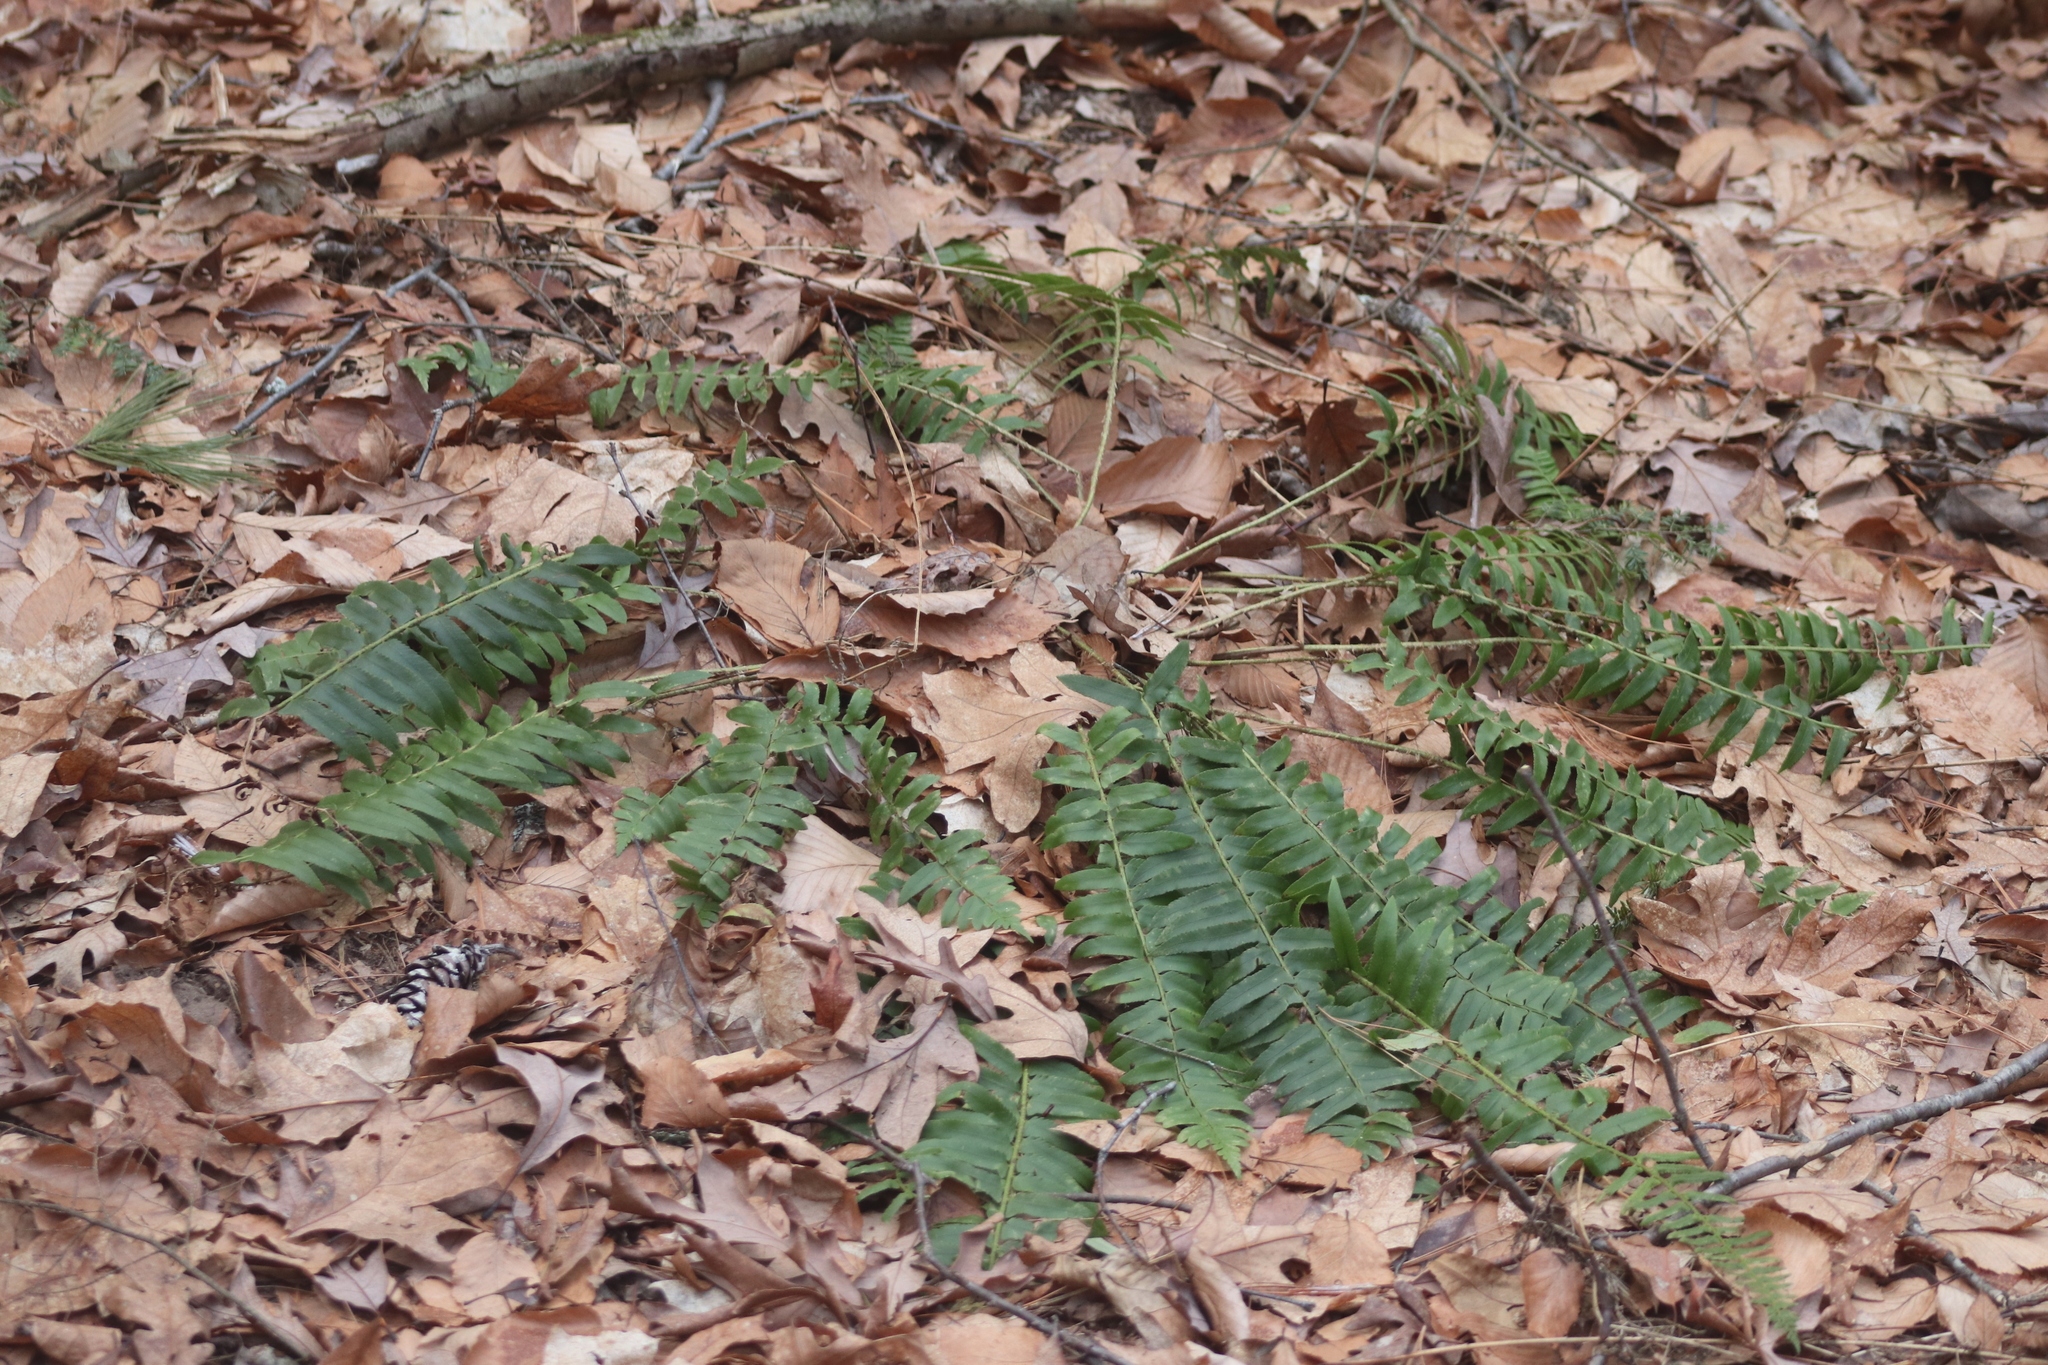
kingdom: Plantae
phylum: Tracheophyta
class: Polypodiopsida
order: Polypodiales
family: Dryopteridaceae
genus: Polystichum
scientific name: Polystichum acrostichoides
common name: Christmas fern
